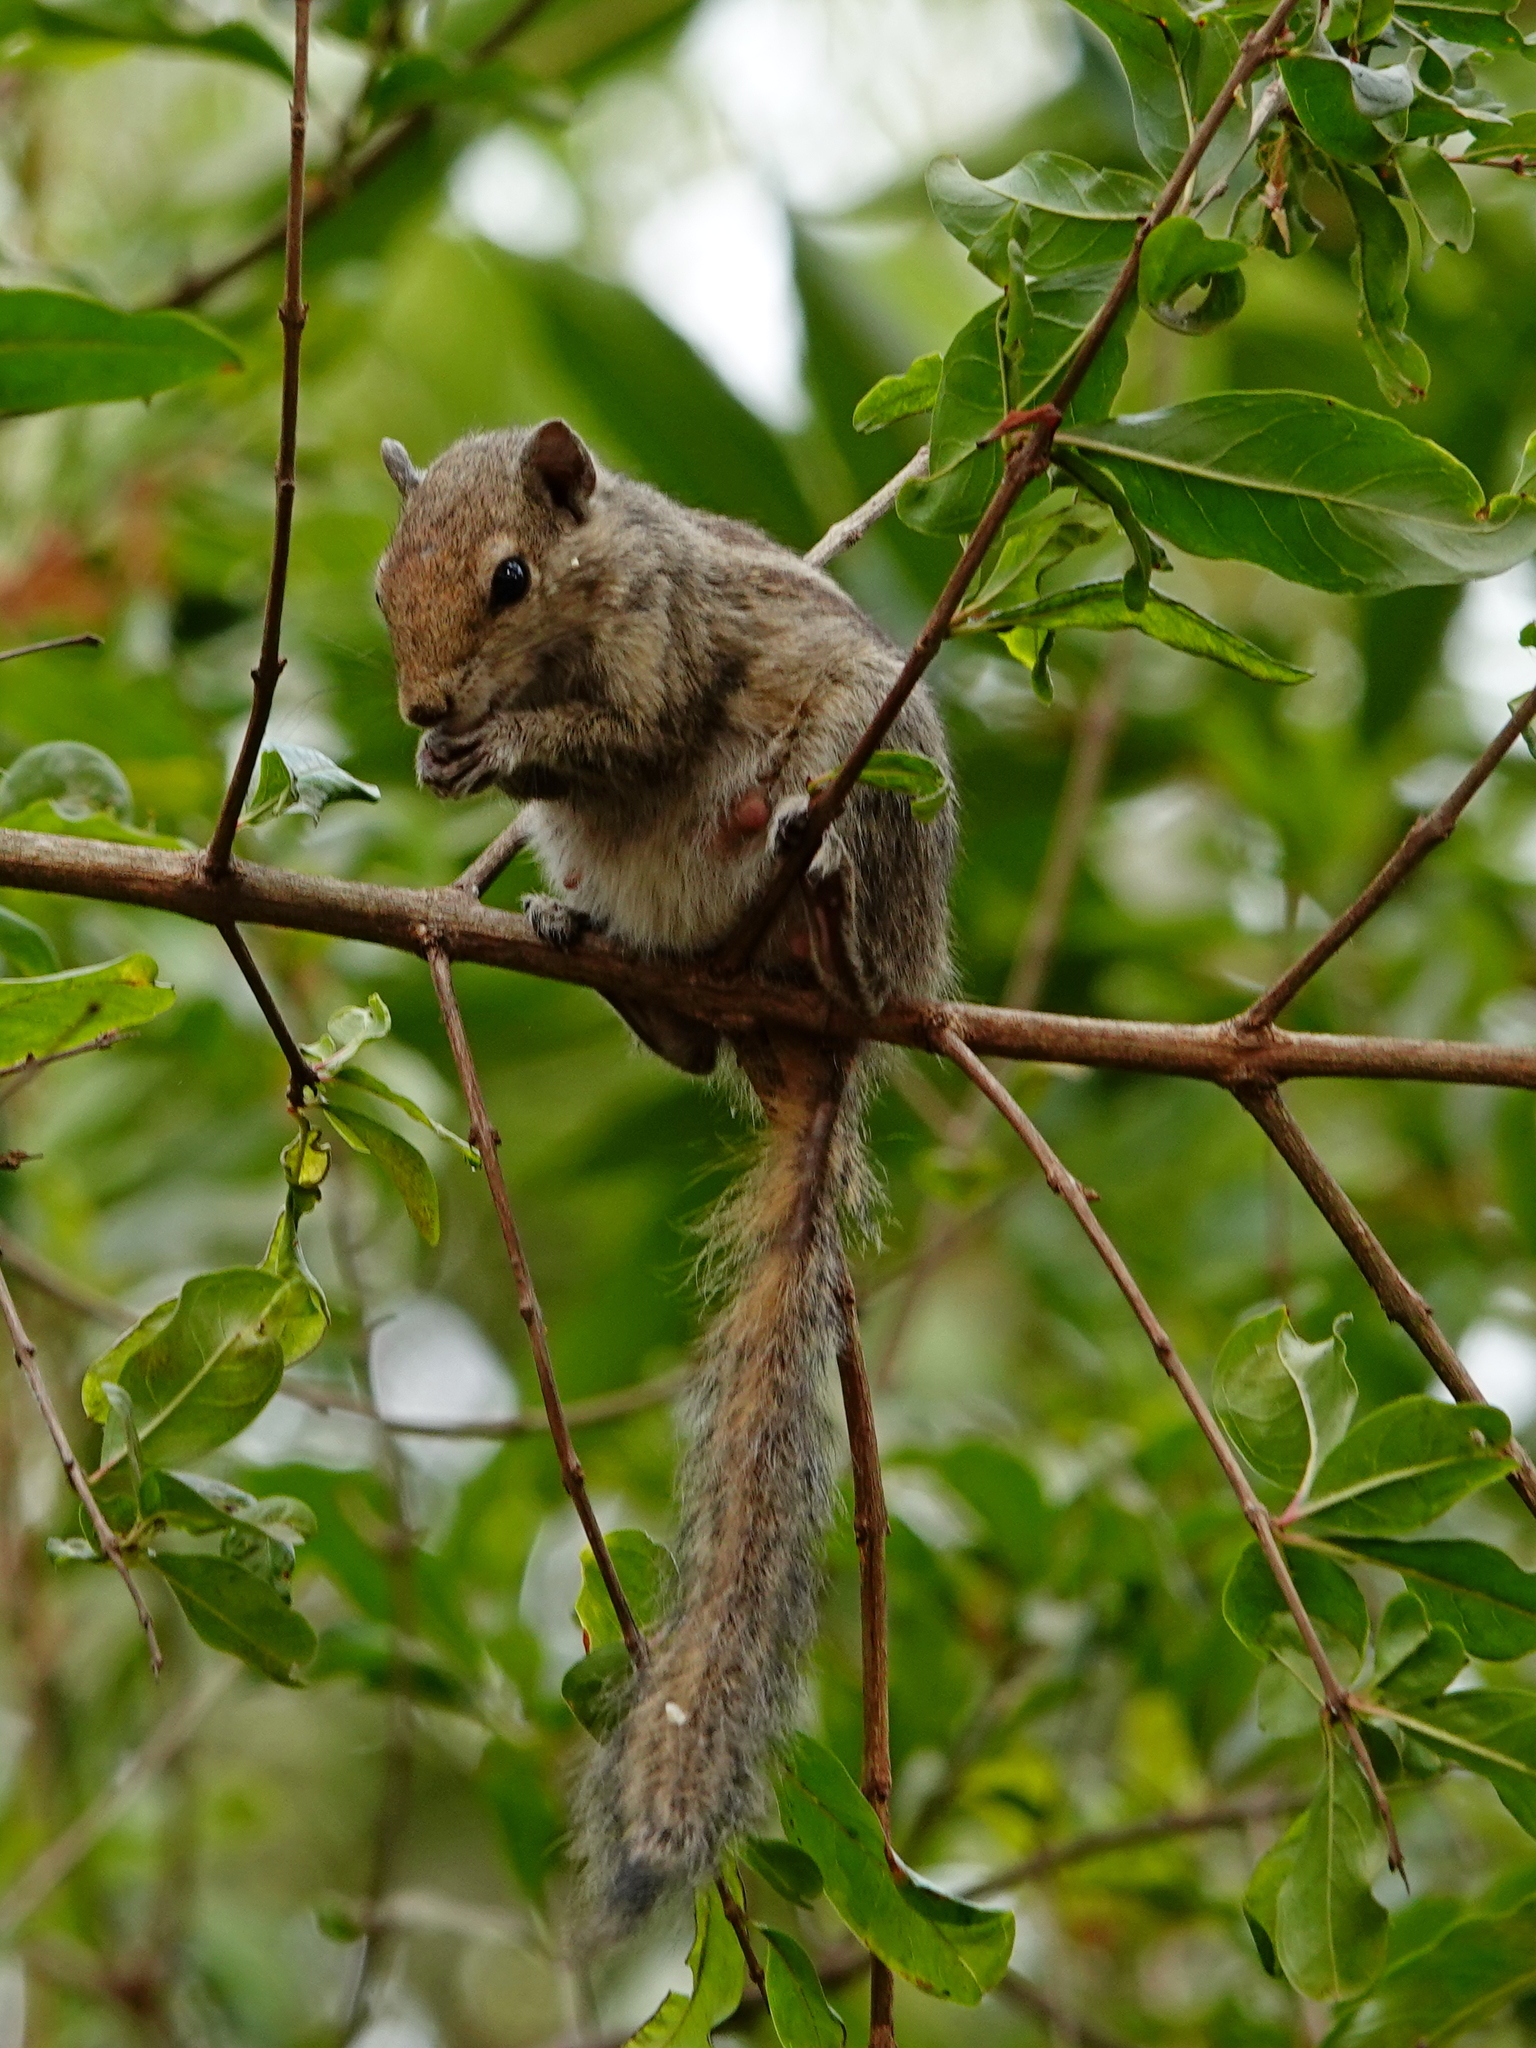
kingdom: Animalia
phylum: Chordata
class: Mammalia
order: Rodentia
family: Sciuridae
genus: Funambulus
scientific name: Funambulus palmarum
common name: Indian palm squirrel
